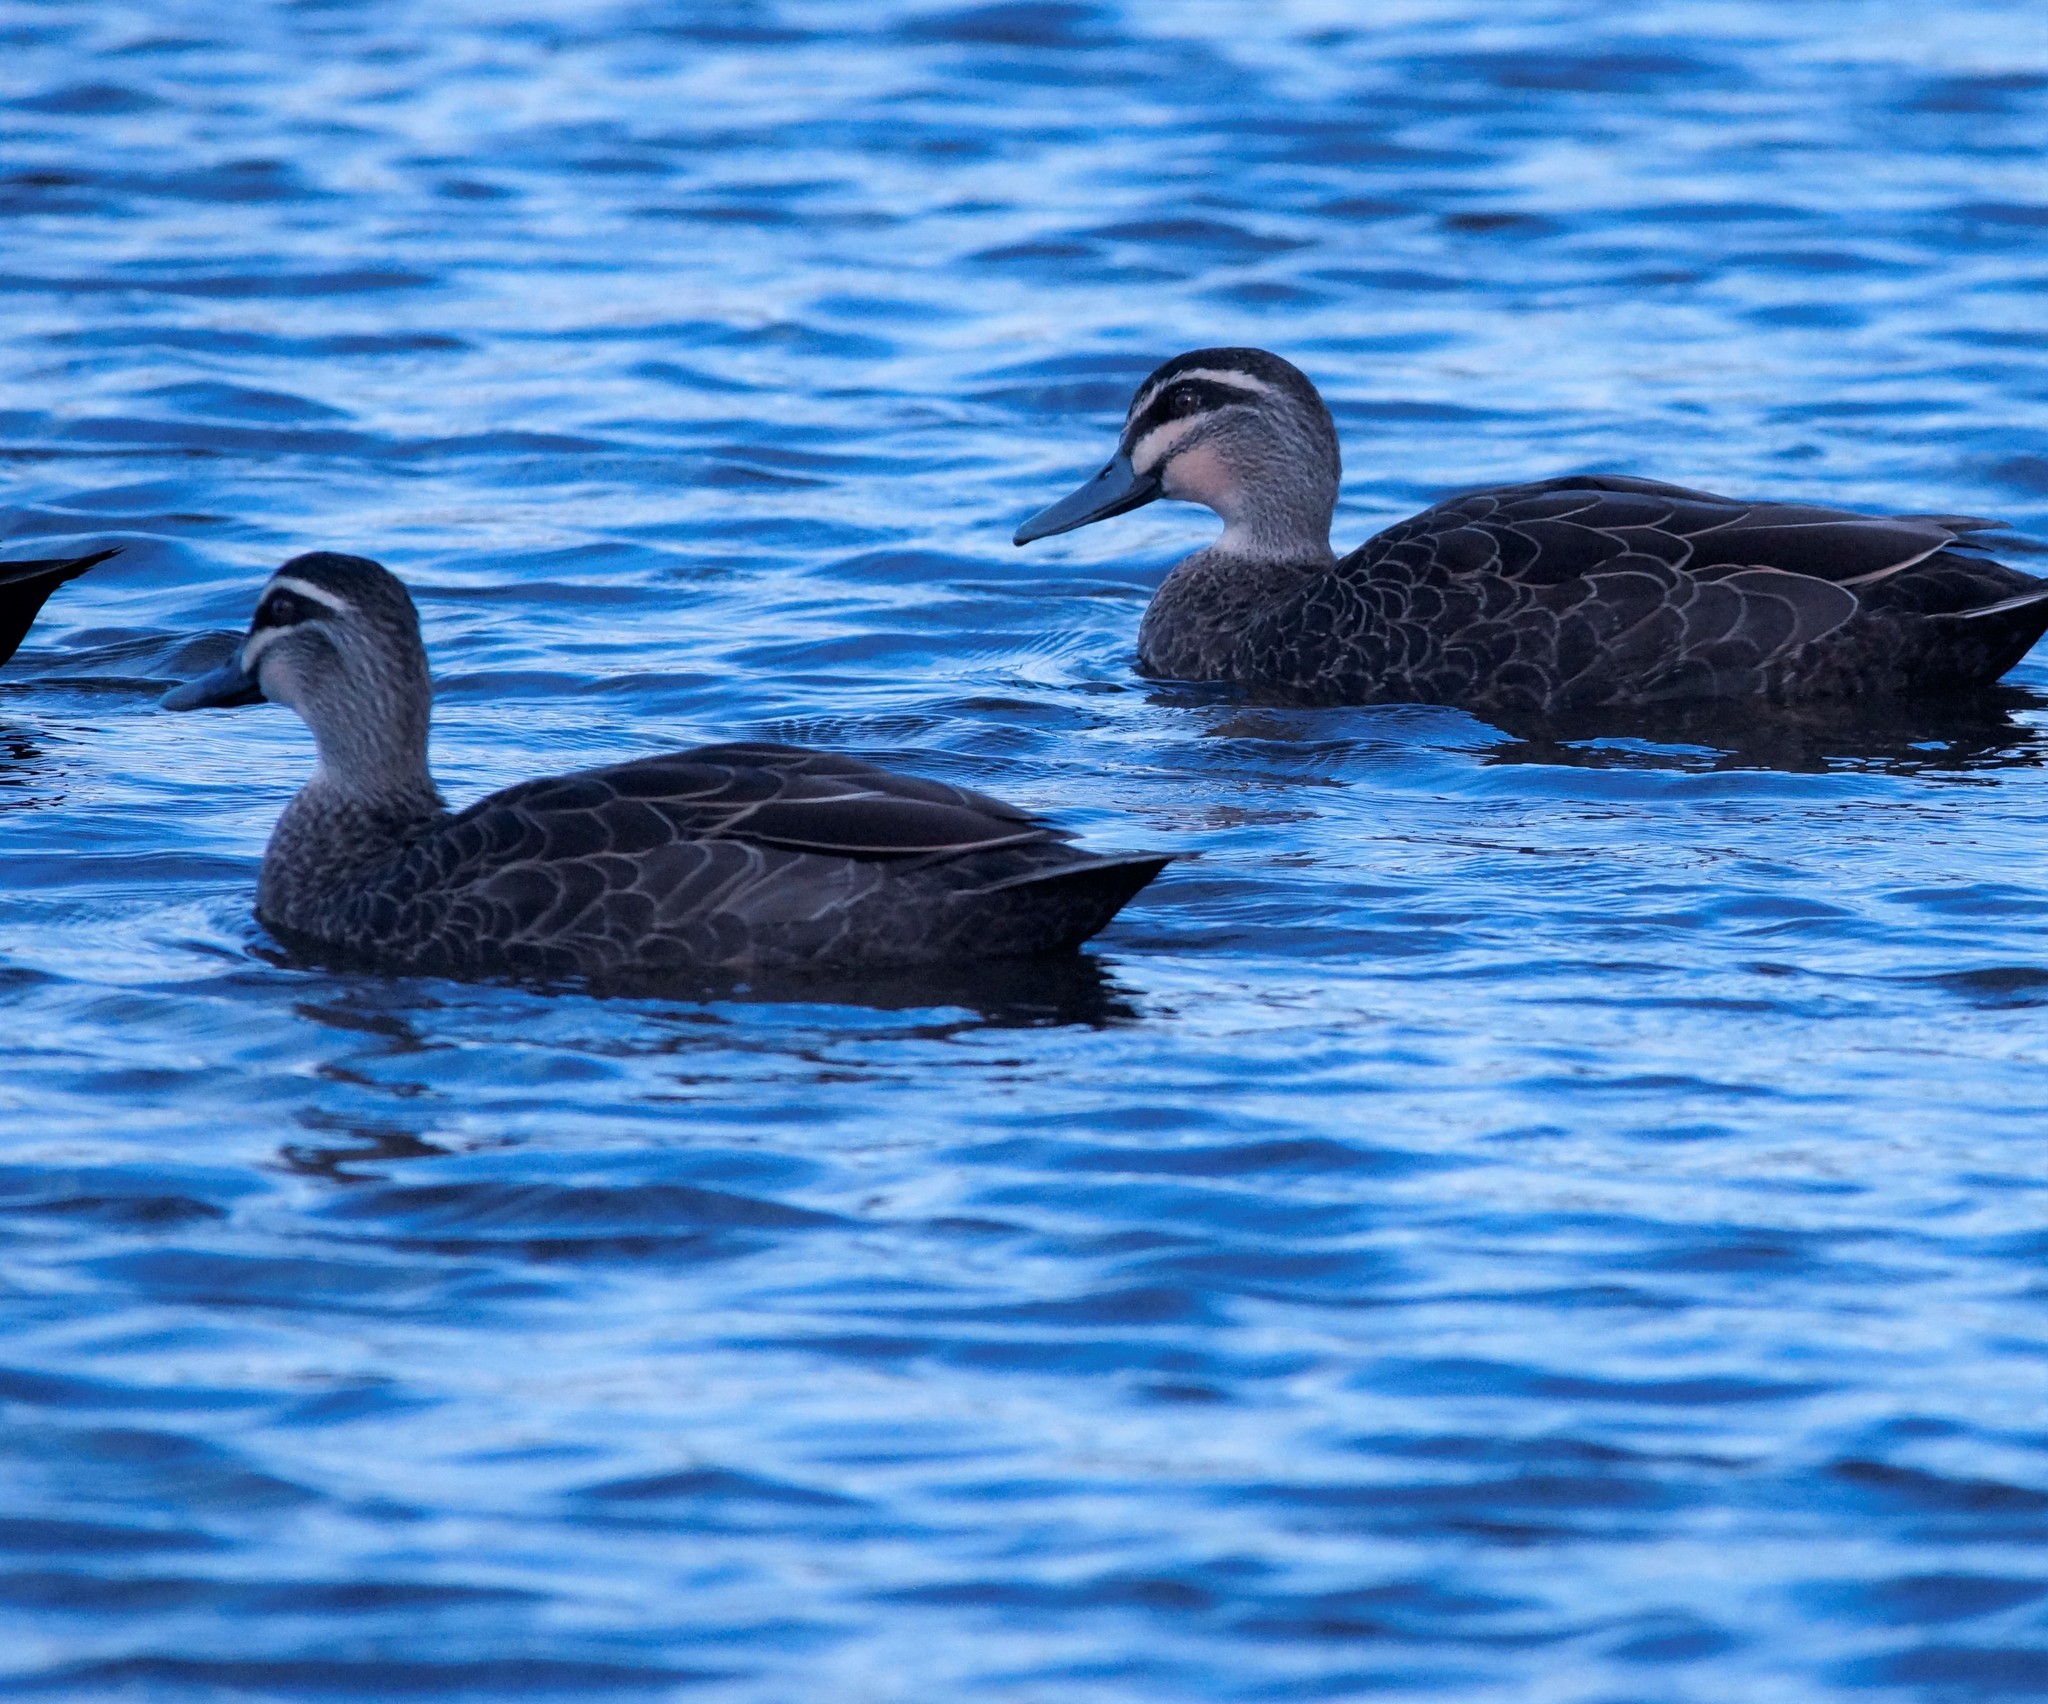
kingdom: Animalia
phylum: Chordata
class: Aves
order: Anseriformes
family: Anatidae
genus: Anas
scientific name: Anas superciliosa
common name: Pacific black duck
